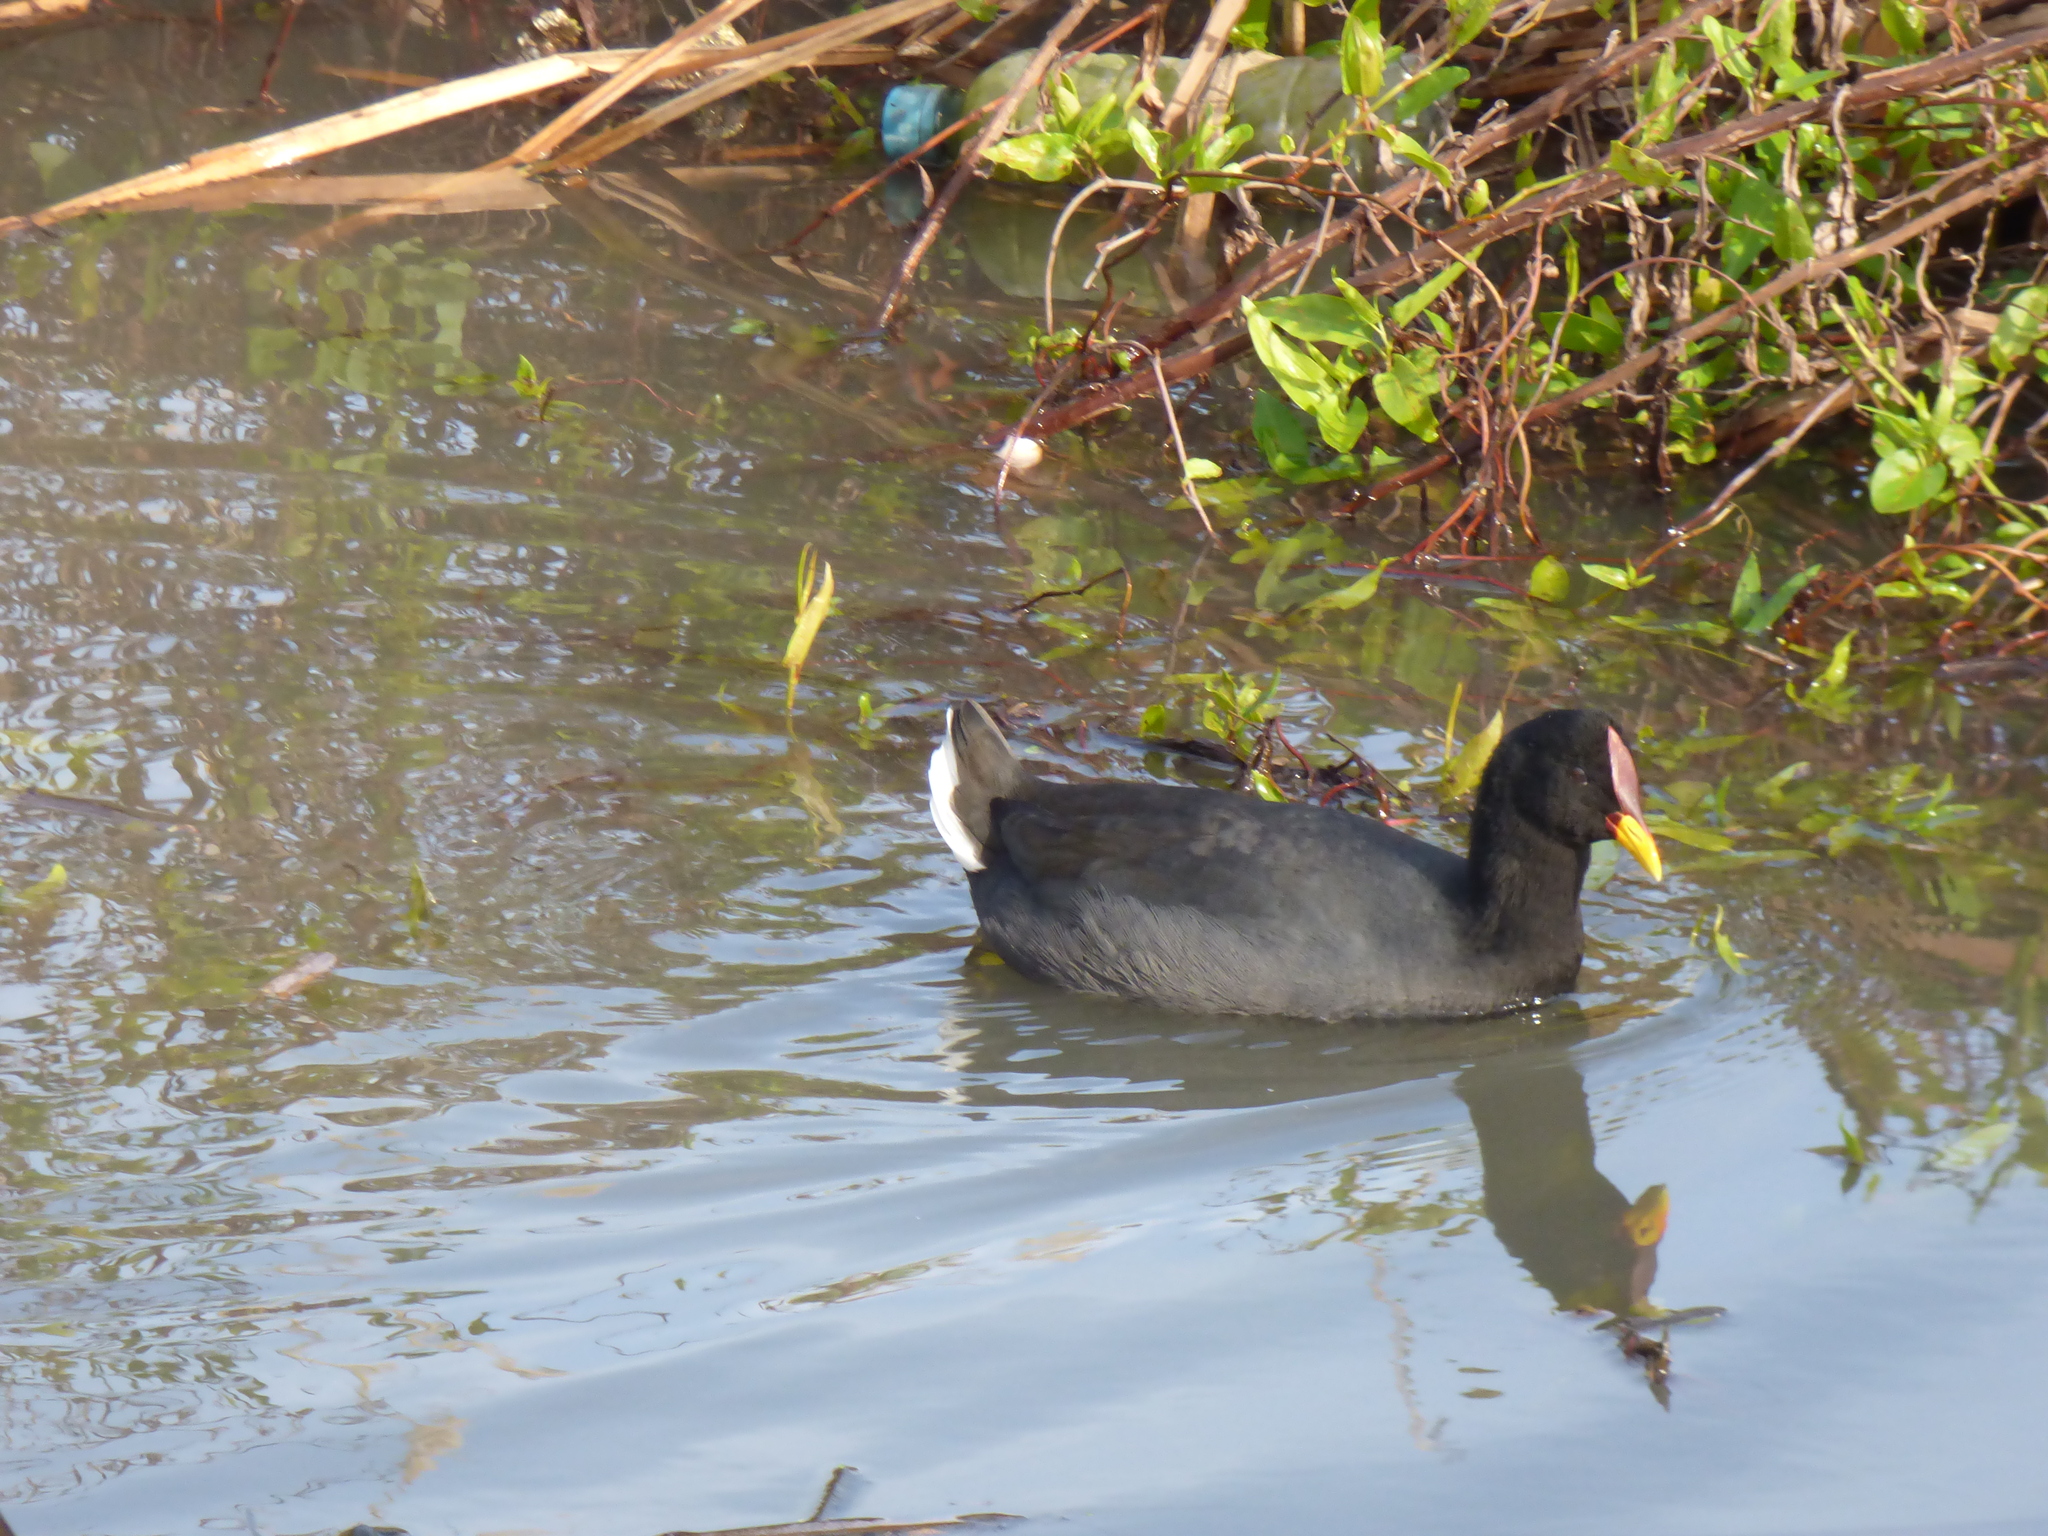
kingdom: Animalia
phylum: Chordata
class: Aves
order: Gruiformes
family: Rallidae
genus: Fulica
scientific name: Fulica rufifrons
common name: Red-fronted coot
